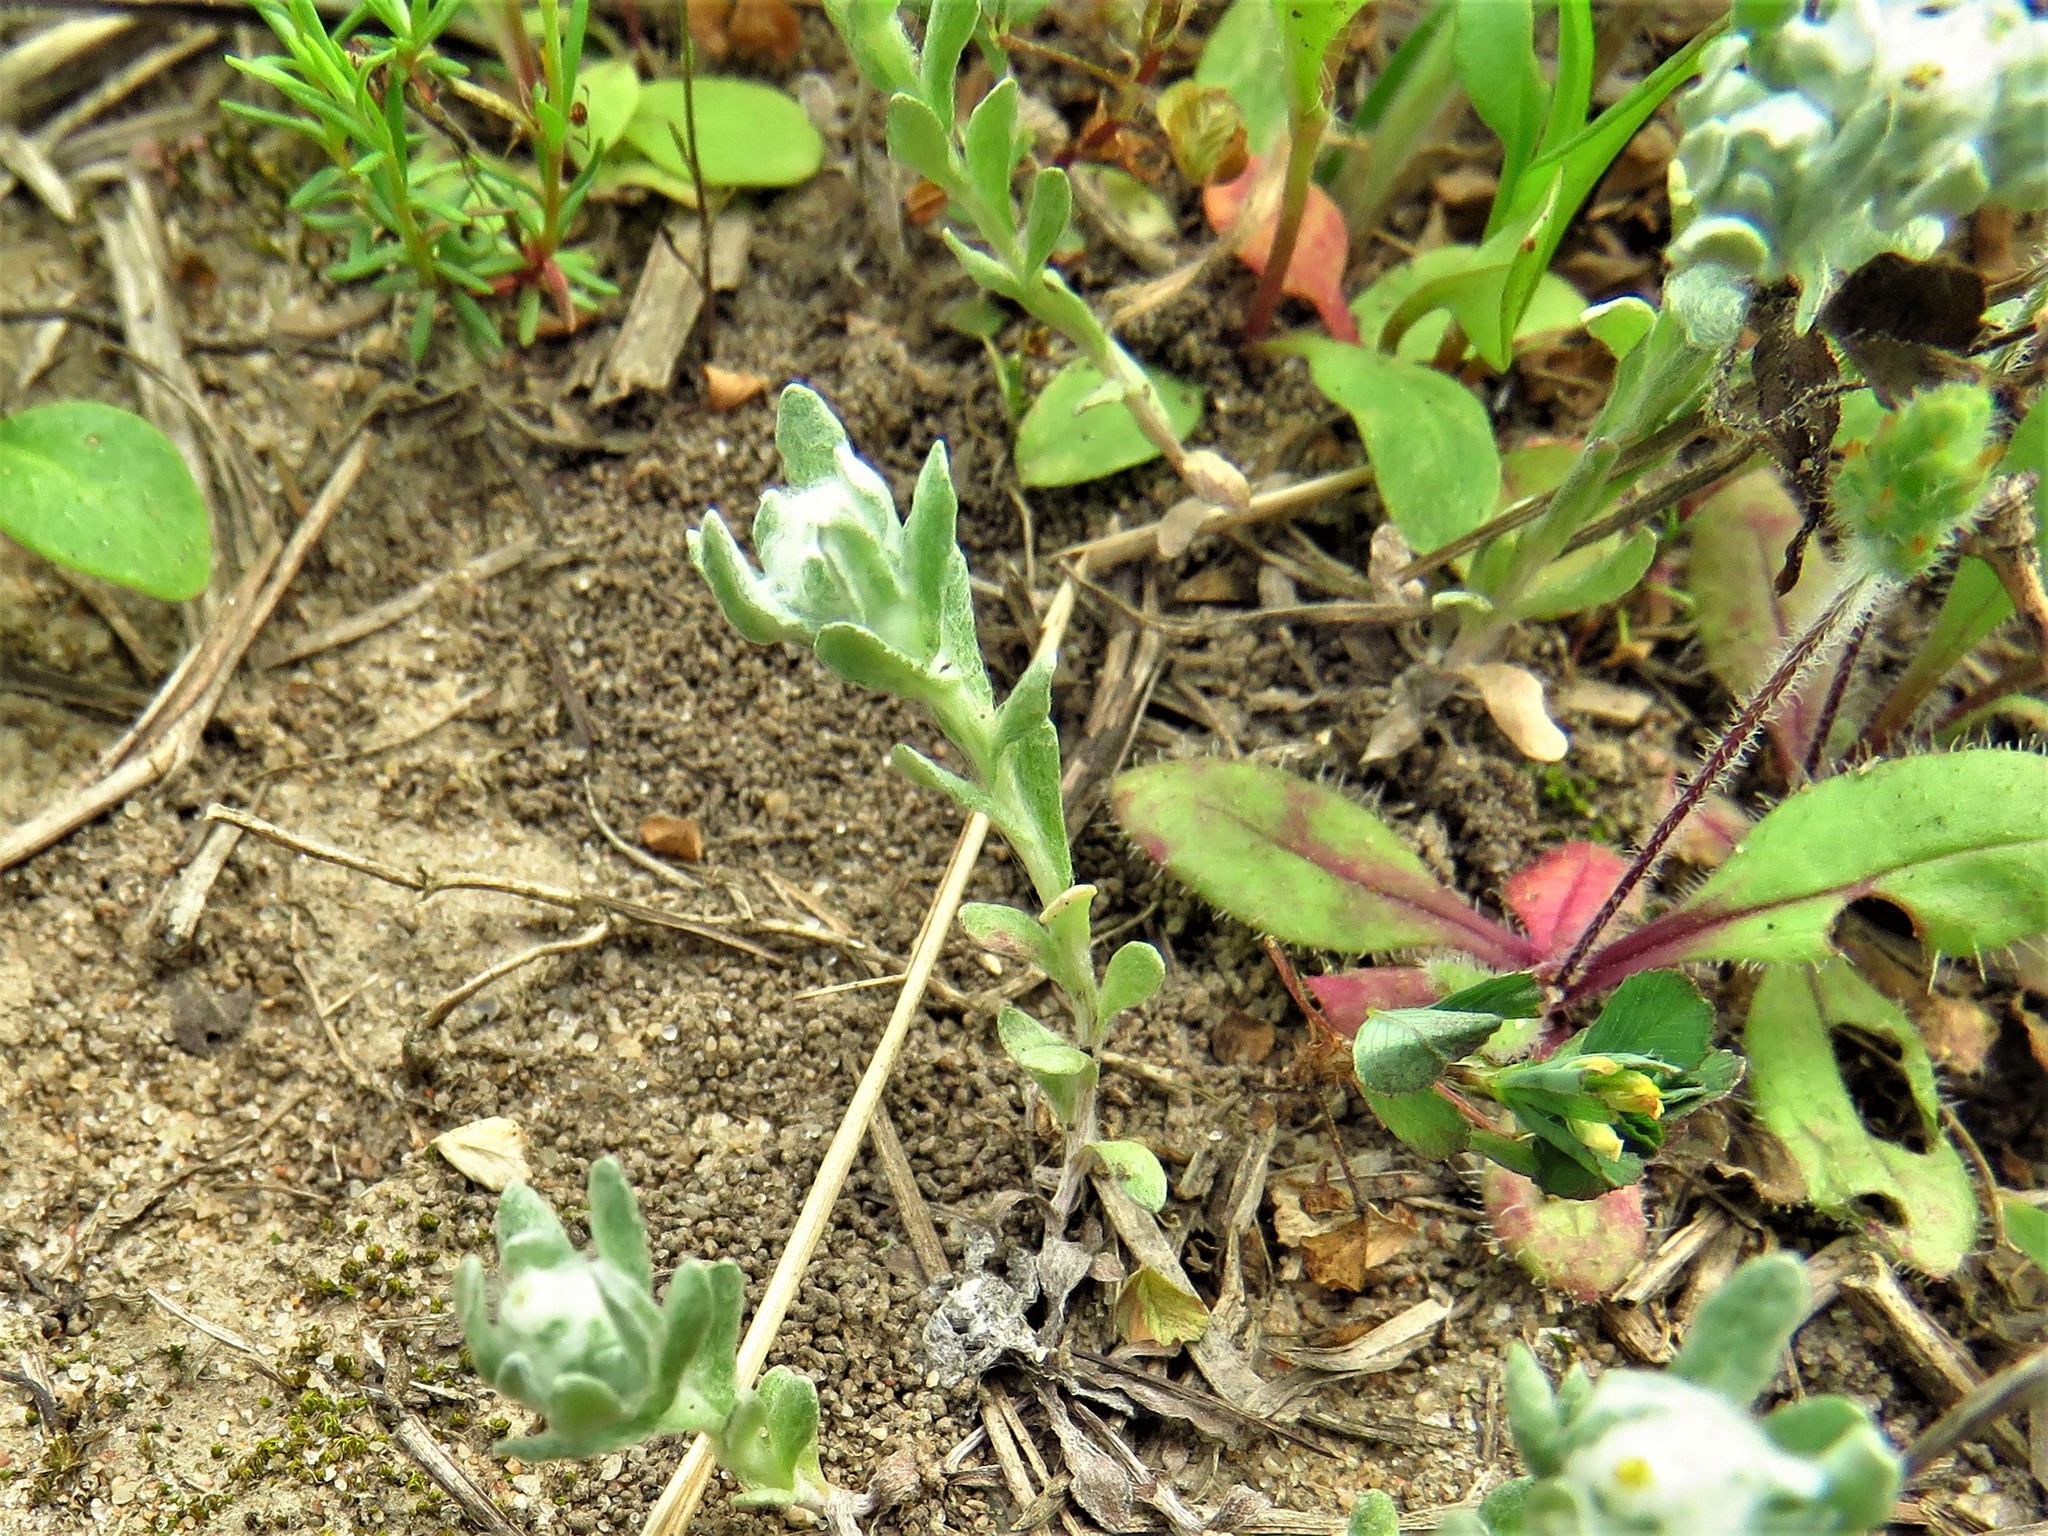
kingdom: Plantae
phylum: Tracheophyta
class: Magnoliopsida
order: Asterales
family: Asteraceae
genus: Diaperia
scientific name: Diaperia verna
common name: Many-stem rabbit-tobacco
